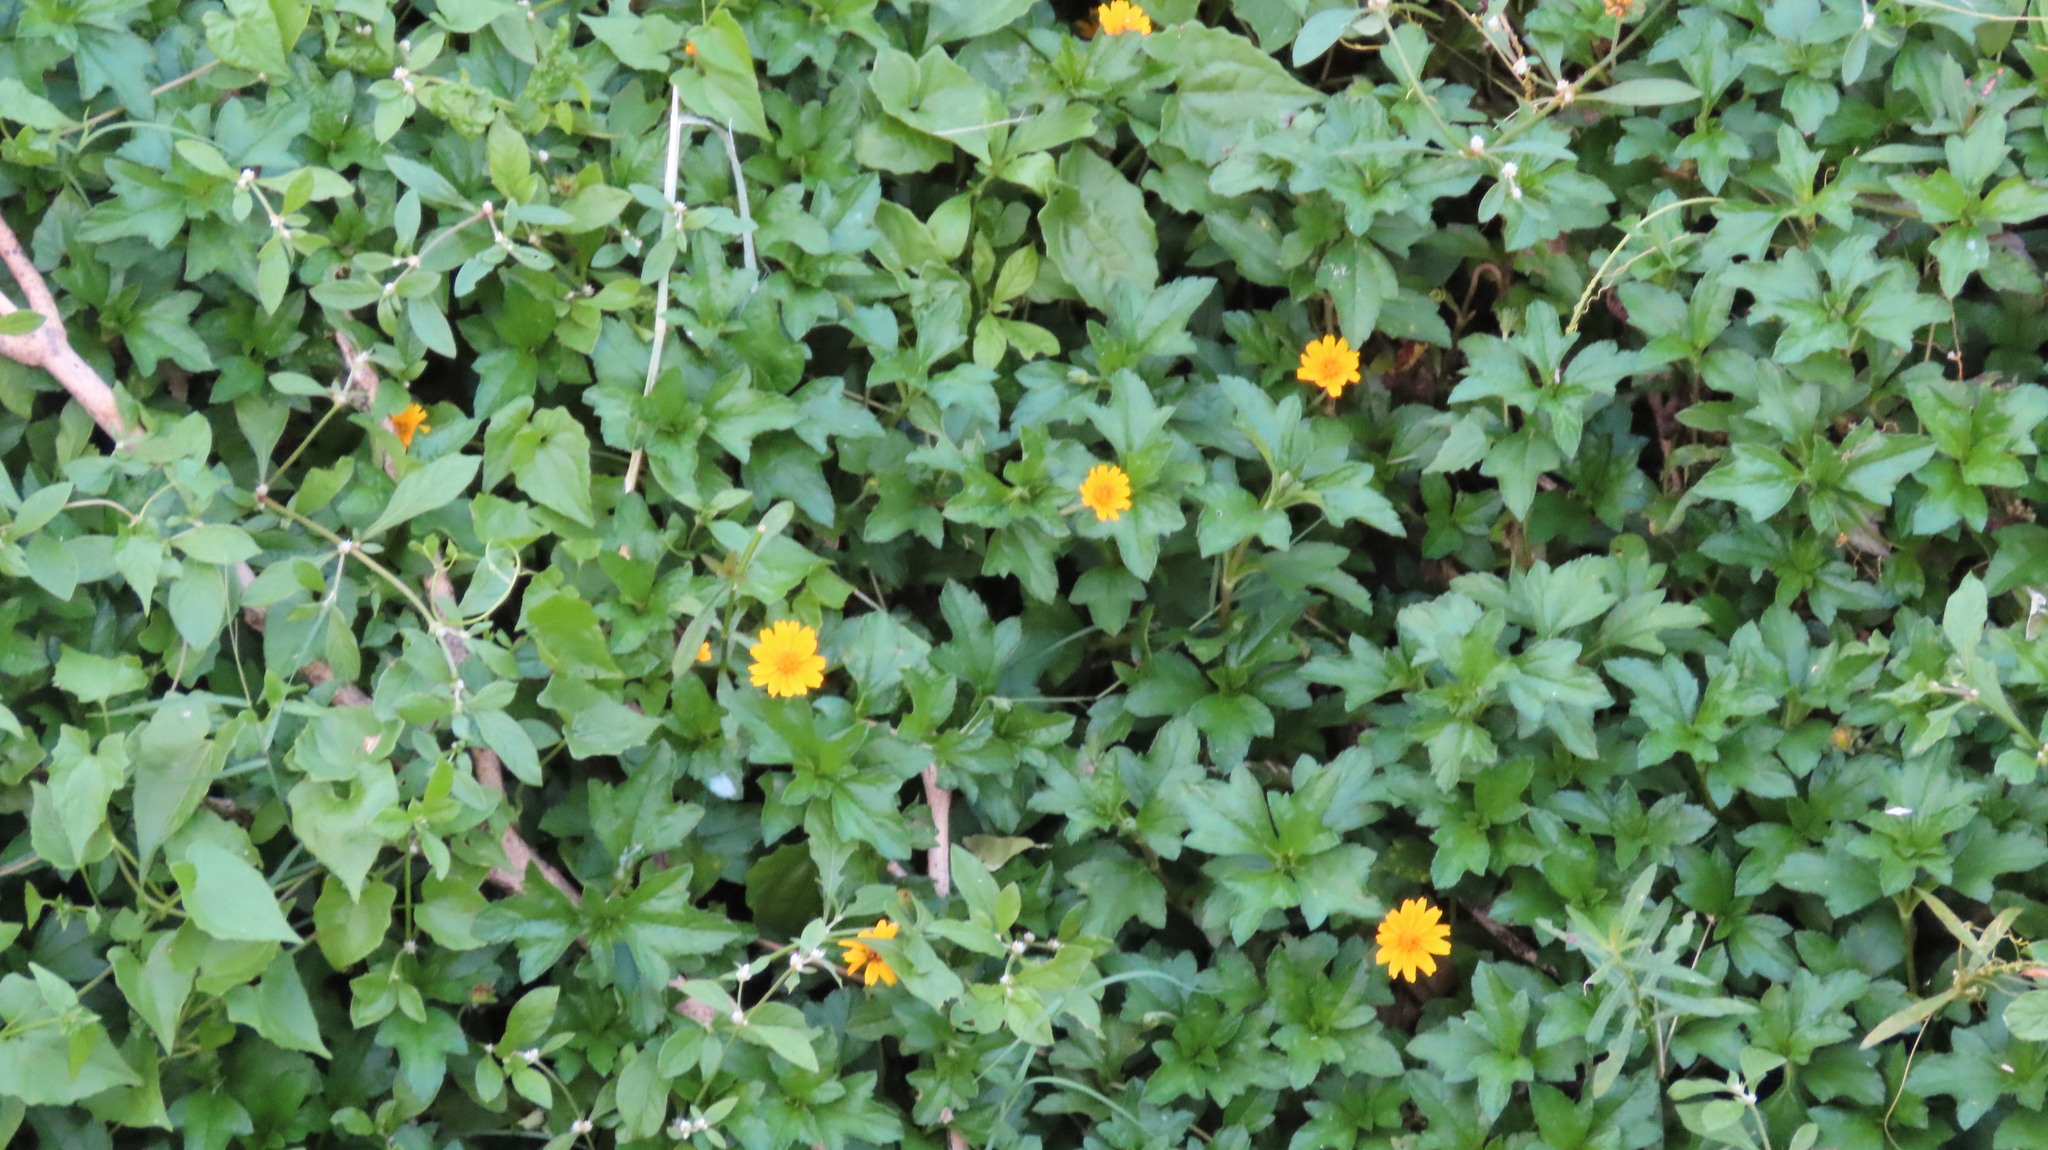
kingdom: Plantae
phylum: Tracheophyta
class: Magnoliopsida
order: Asterales
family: Asteraceae
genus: Sphagneticola
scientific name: Sphagneticola trilobata
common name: Bay biscayne creeping-oxeye
